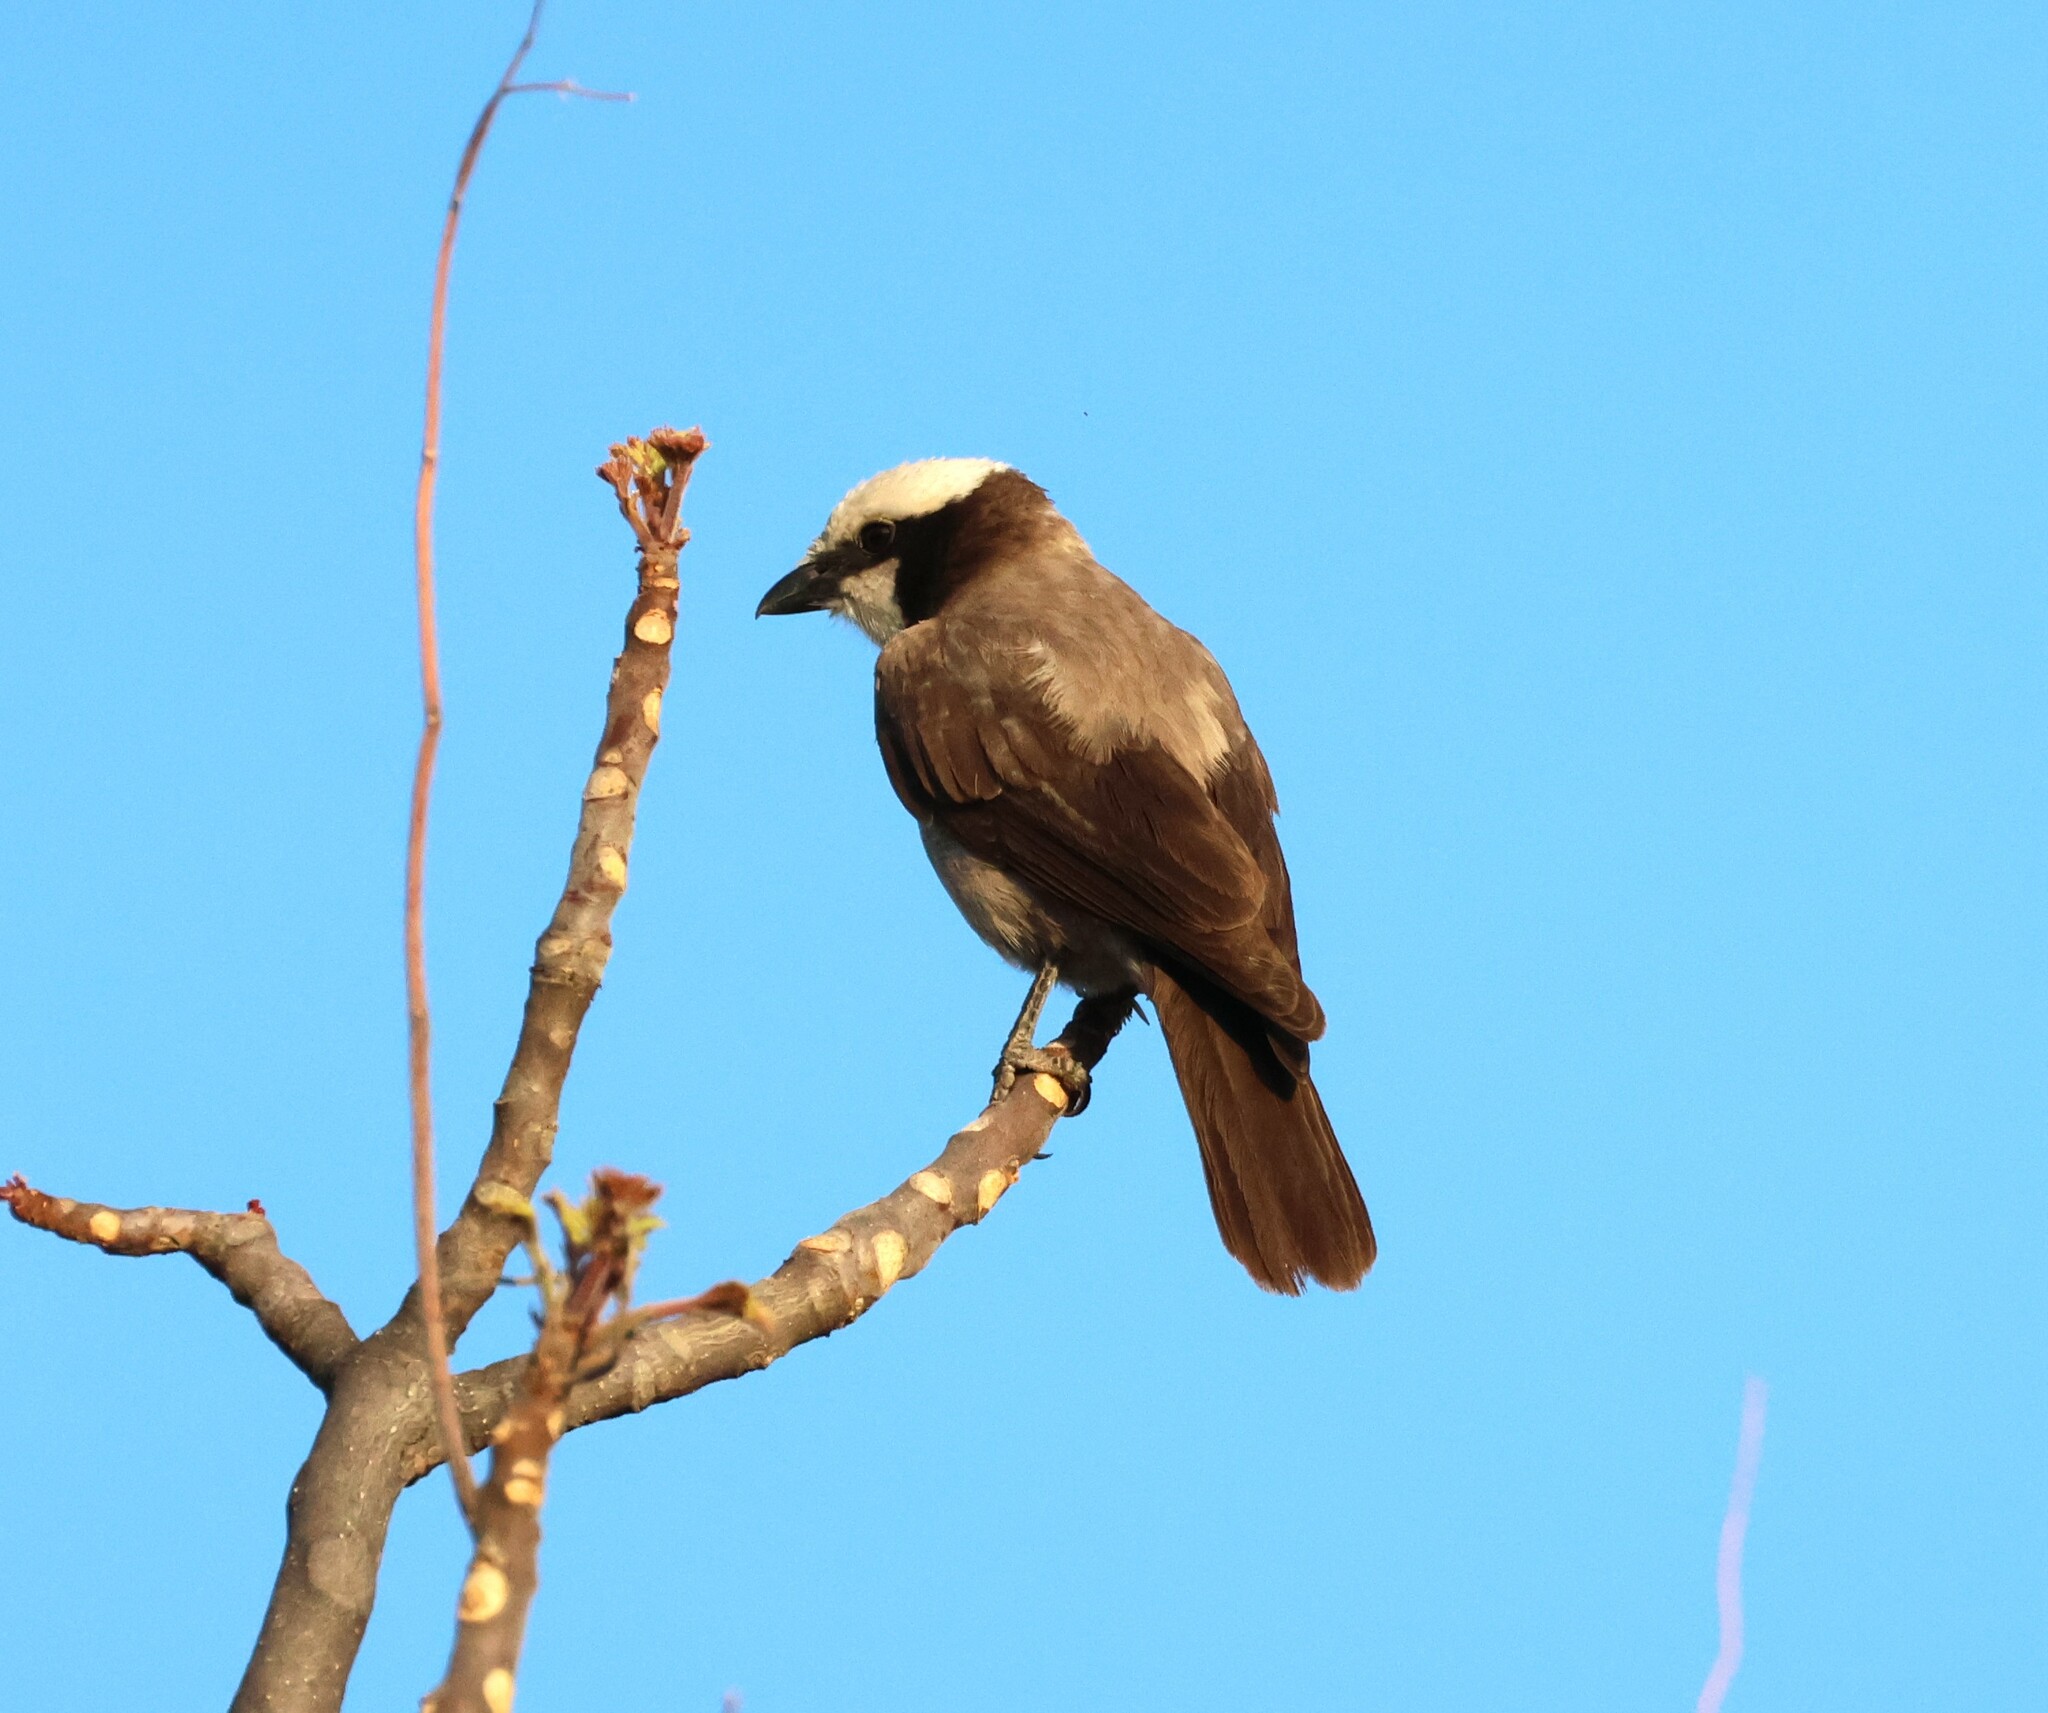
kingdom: Animalia
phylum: Chordata
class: Aves
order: Passeriformes
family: Laniidae
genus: Eurocephalus
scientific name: Eurocephalus anguitimens
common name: Southern white-crowned shrike
